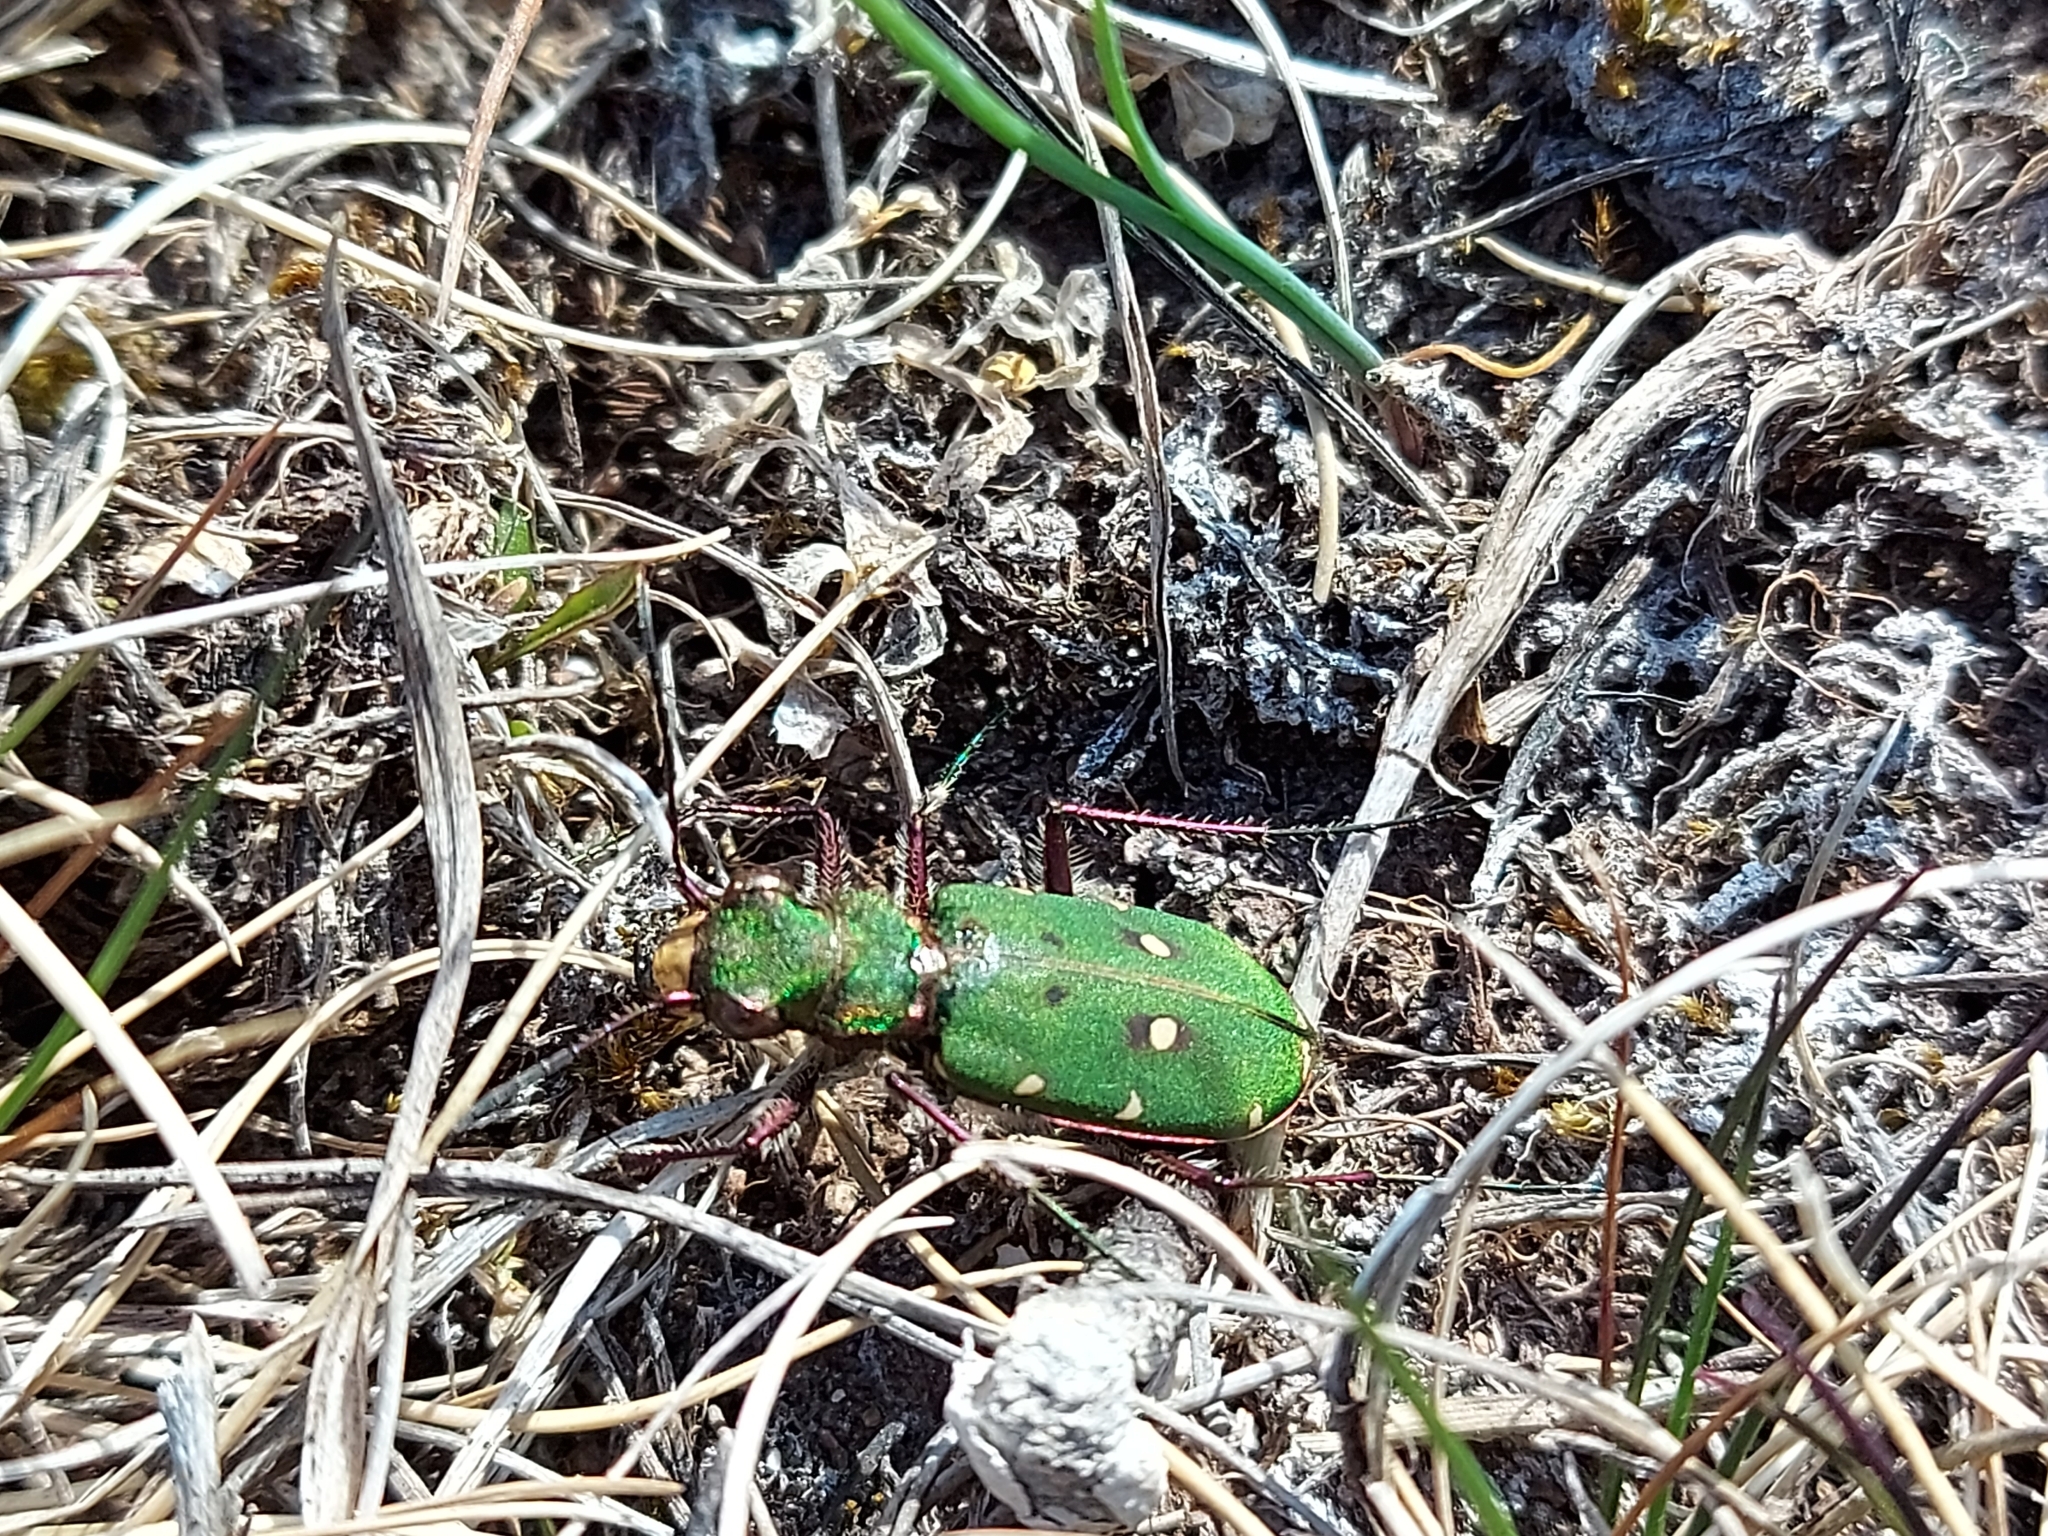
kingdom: Animalia
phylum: Arthropoda
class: Insecta
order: Coleoptera
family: Carabidae
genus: Cicindela
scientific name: Cicindela campestris
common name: Common tiger beetle
